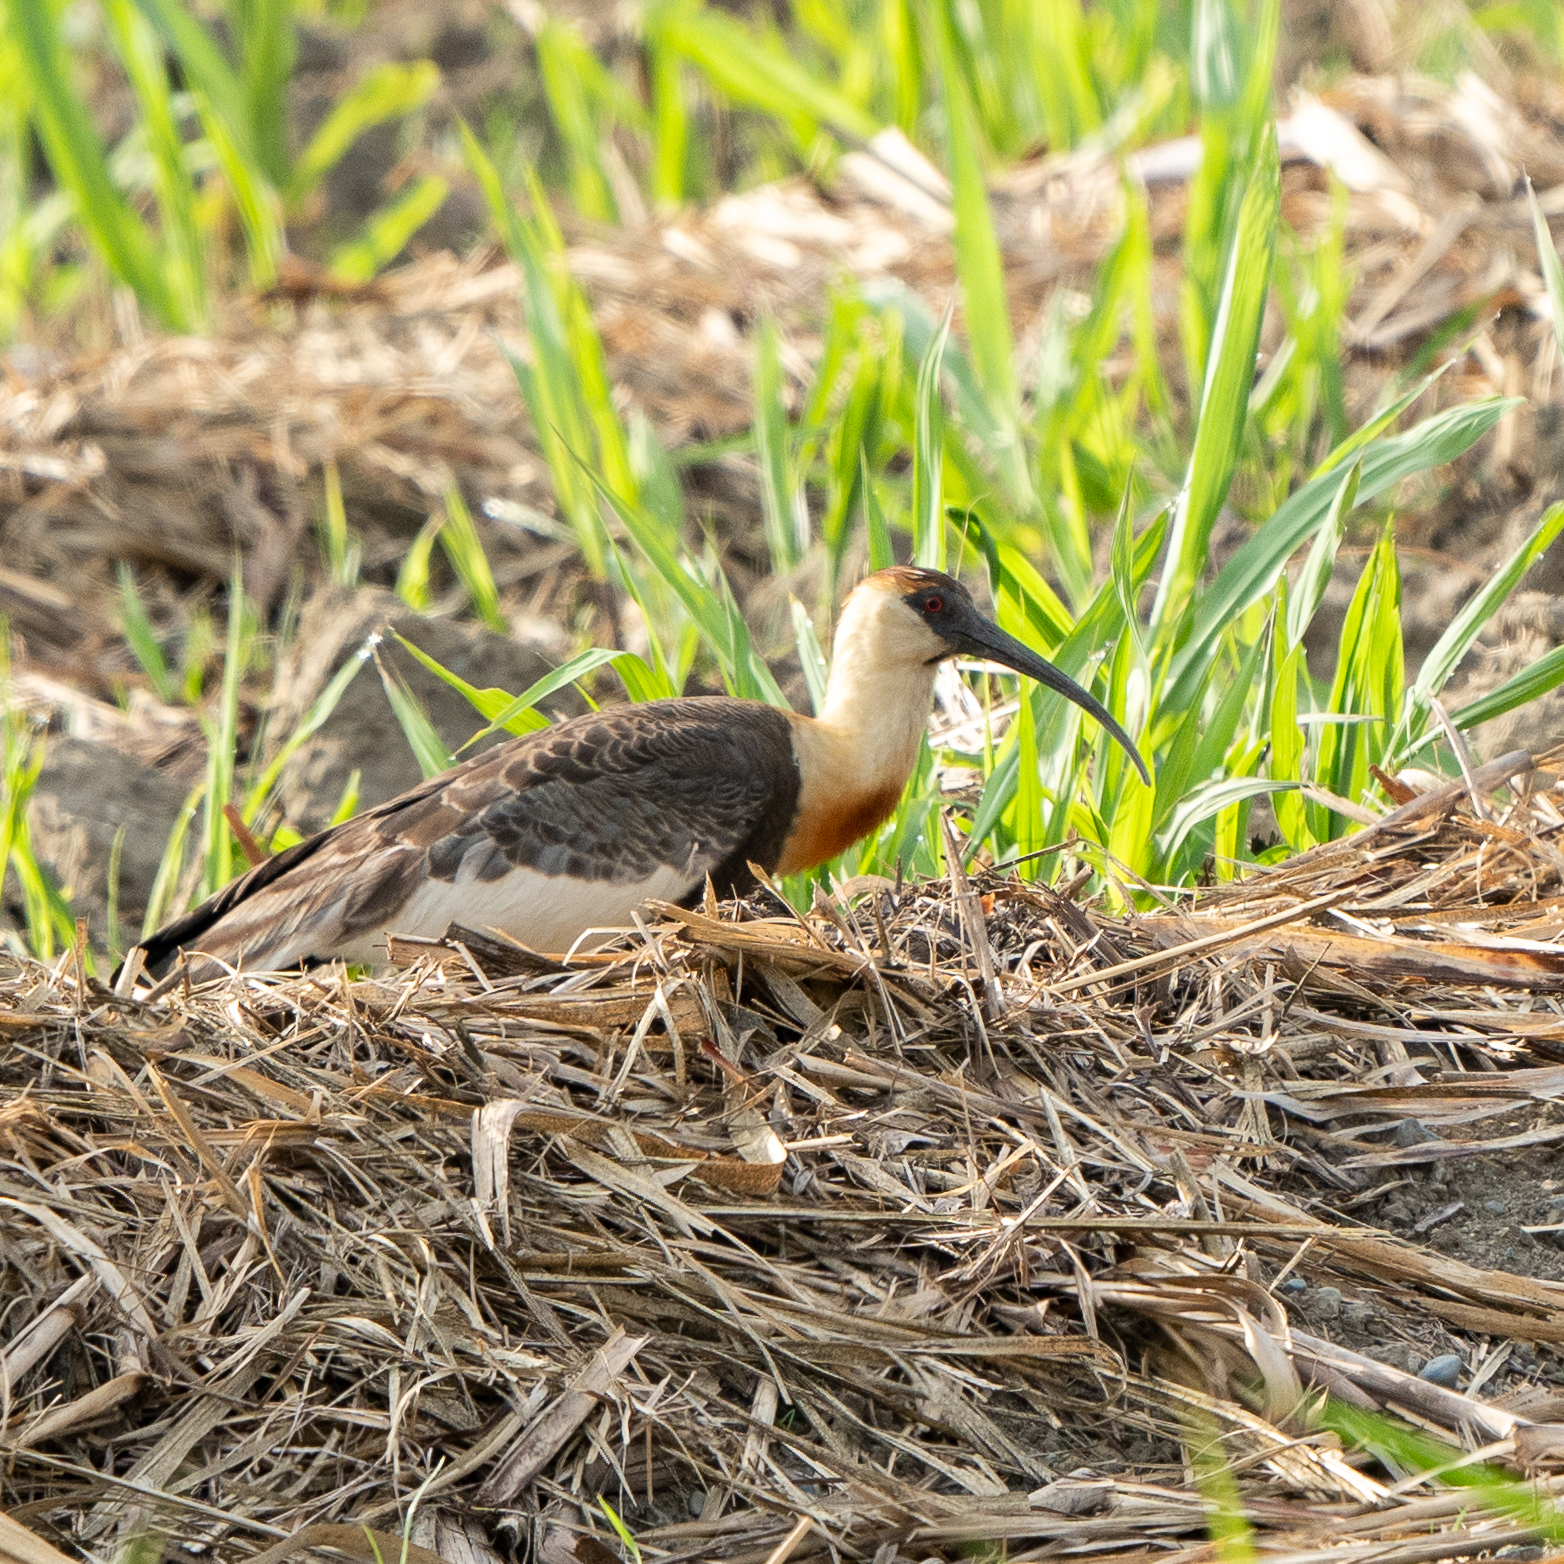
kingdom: Animalia
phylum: Chordata
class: Aves
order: Pelecaniformes
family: Threskiornithidae
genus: Theristicus
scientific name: Theristicus caudatus
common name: Buff-necked ibis
